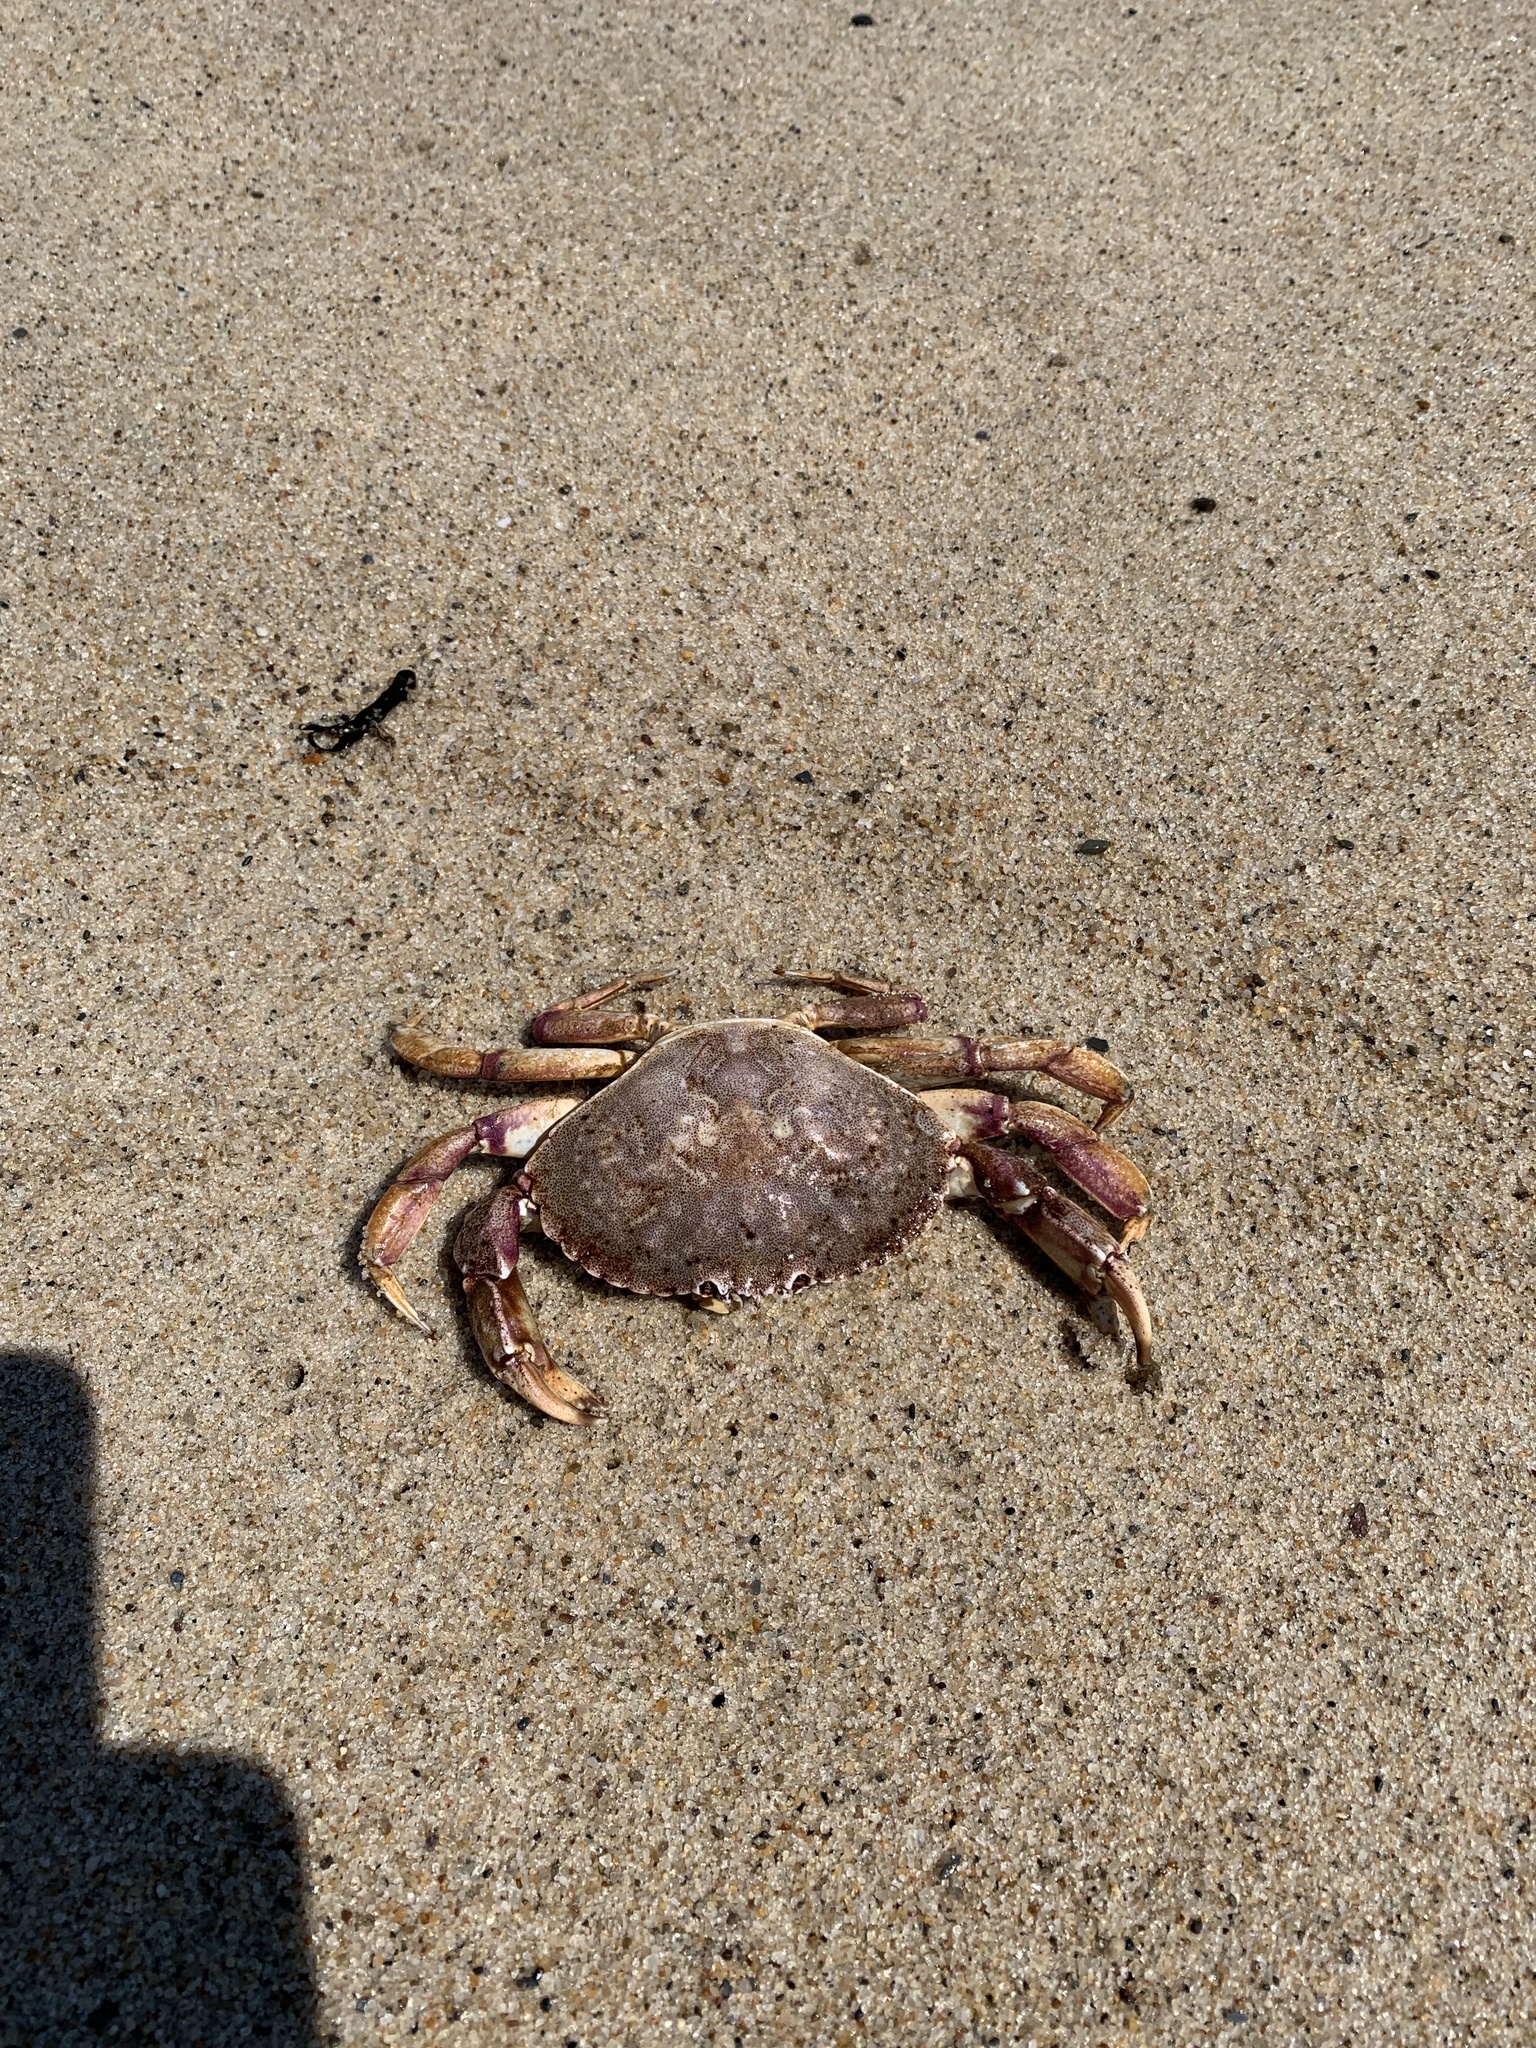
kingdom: Animalia
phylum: Arthropoda
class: Malacostraca
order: Decapoda
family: Cancridae
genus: Cancer
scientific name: Cancer irroratus
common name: Atlantic rock crab
